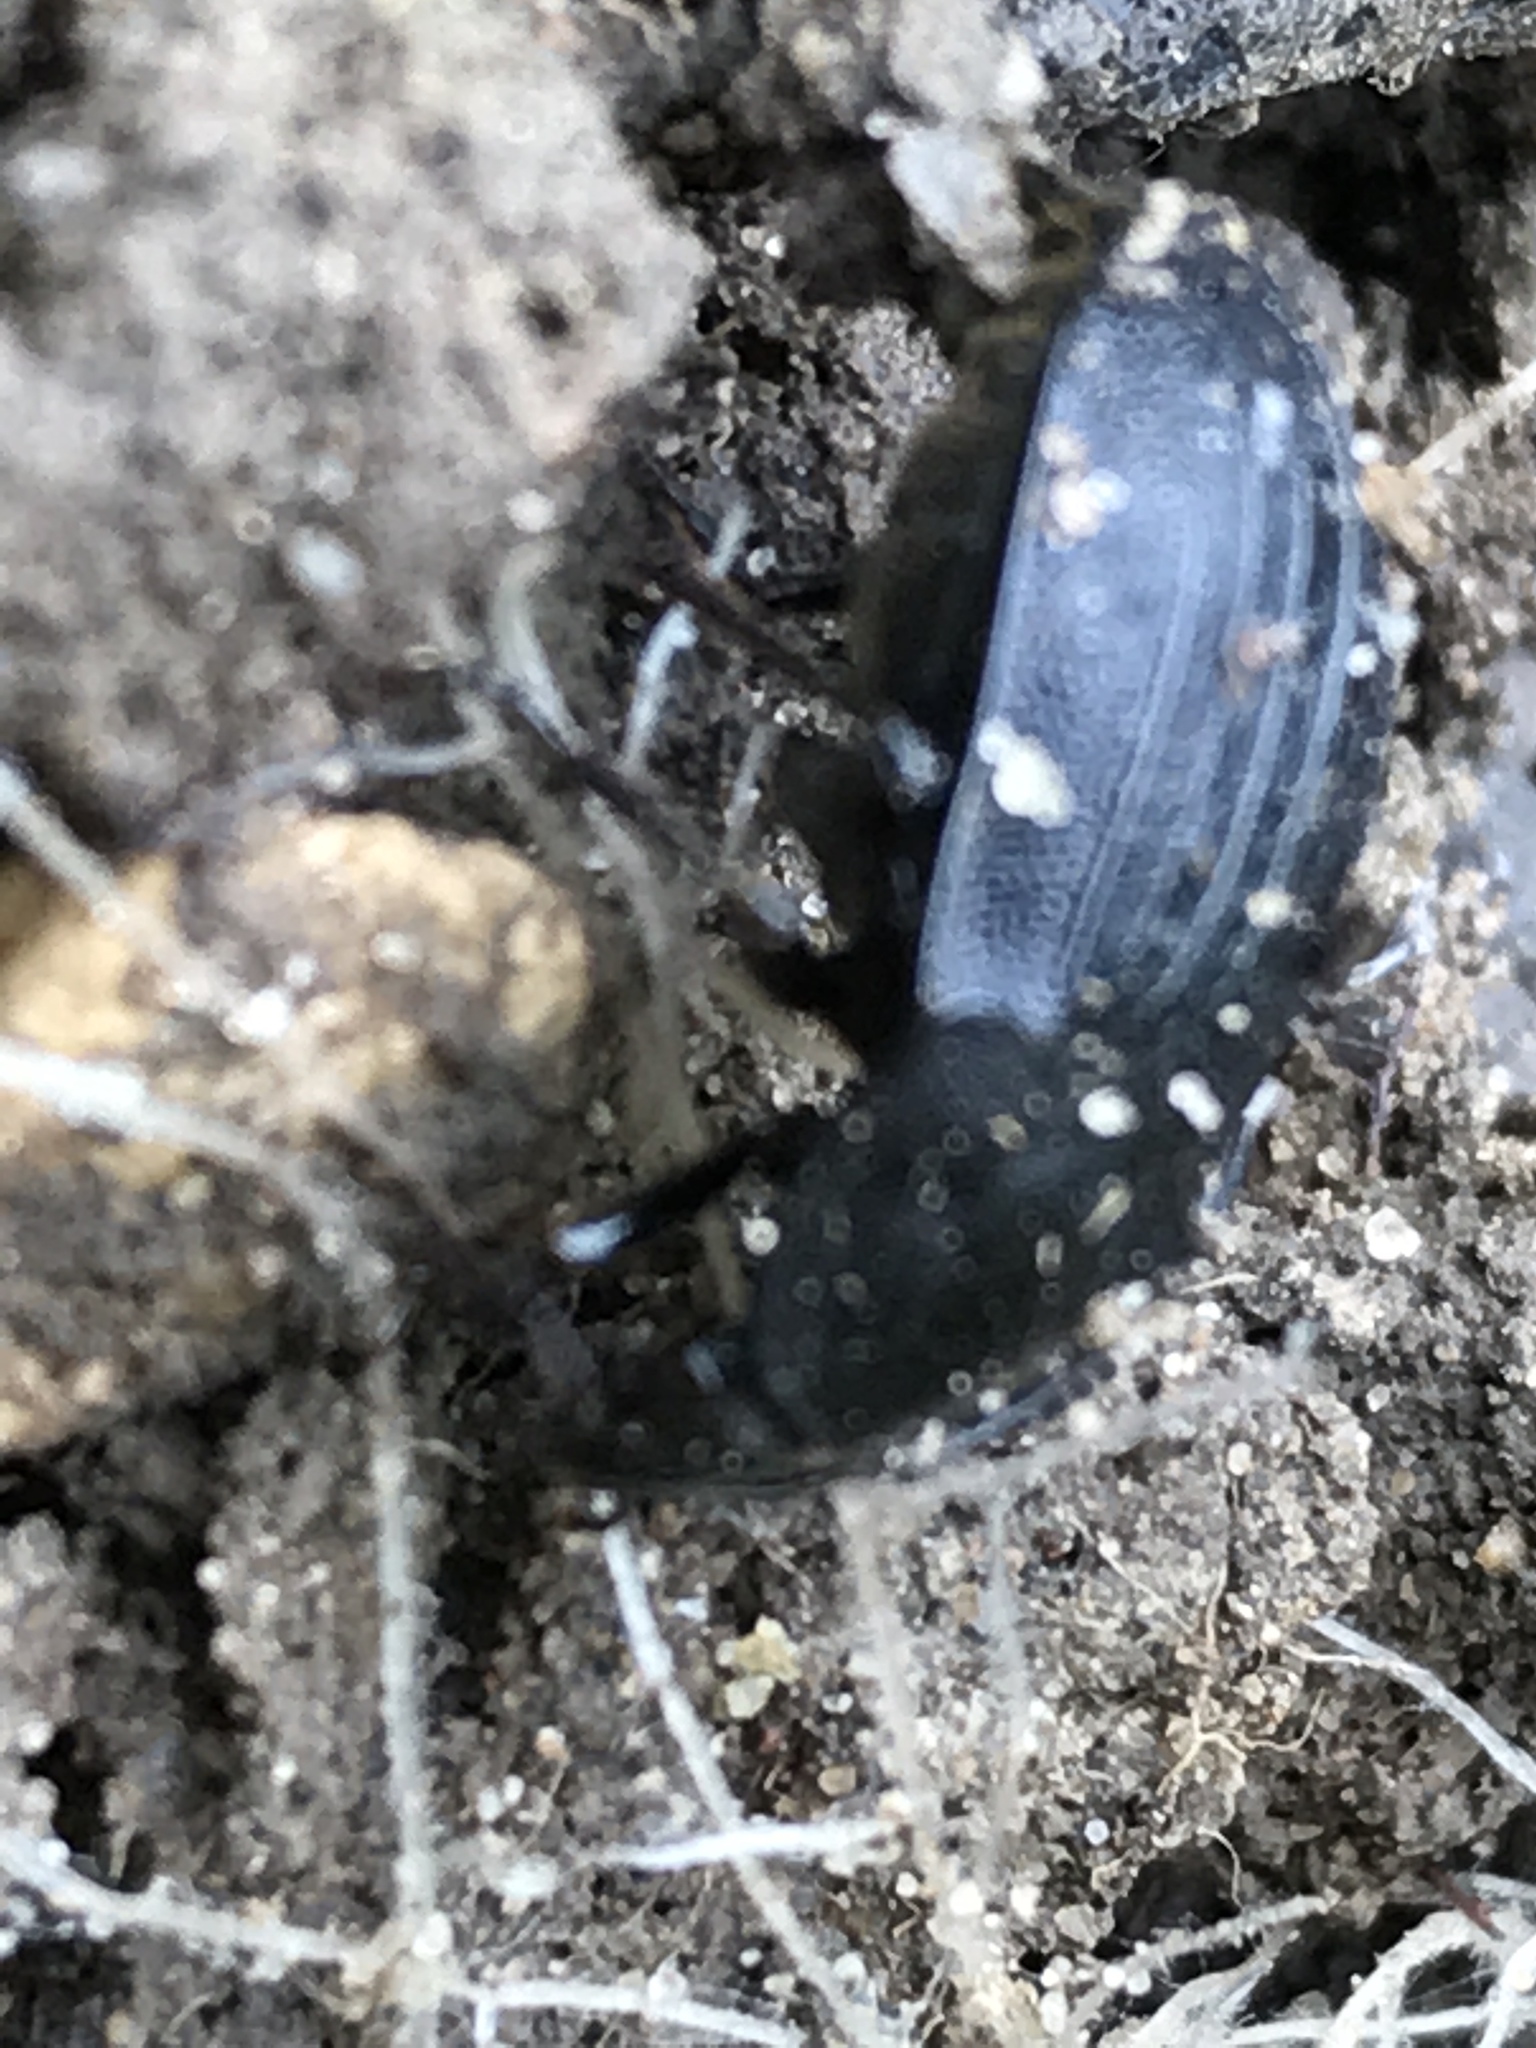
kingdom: Animalia
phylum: Arthropoda
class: Insecta
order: Coleoptera
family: Staphylinidae
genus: Silpha
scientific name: Silpha atrata
